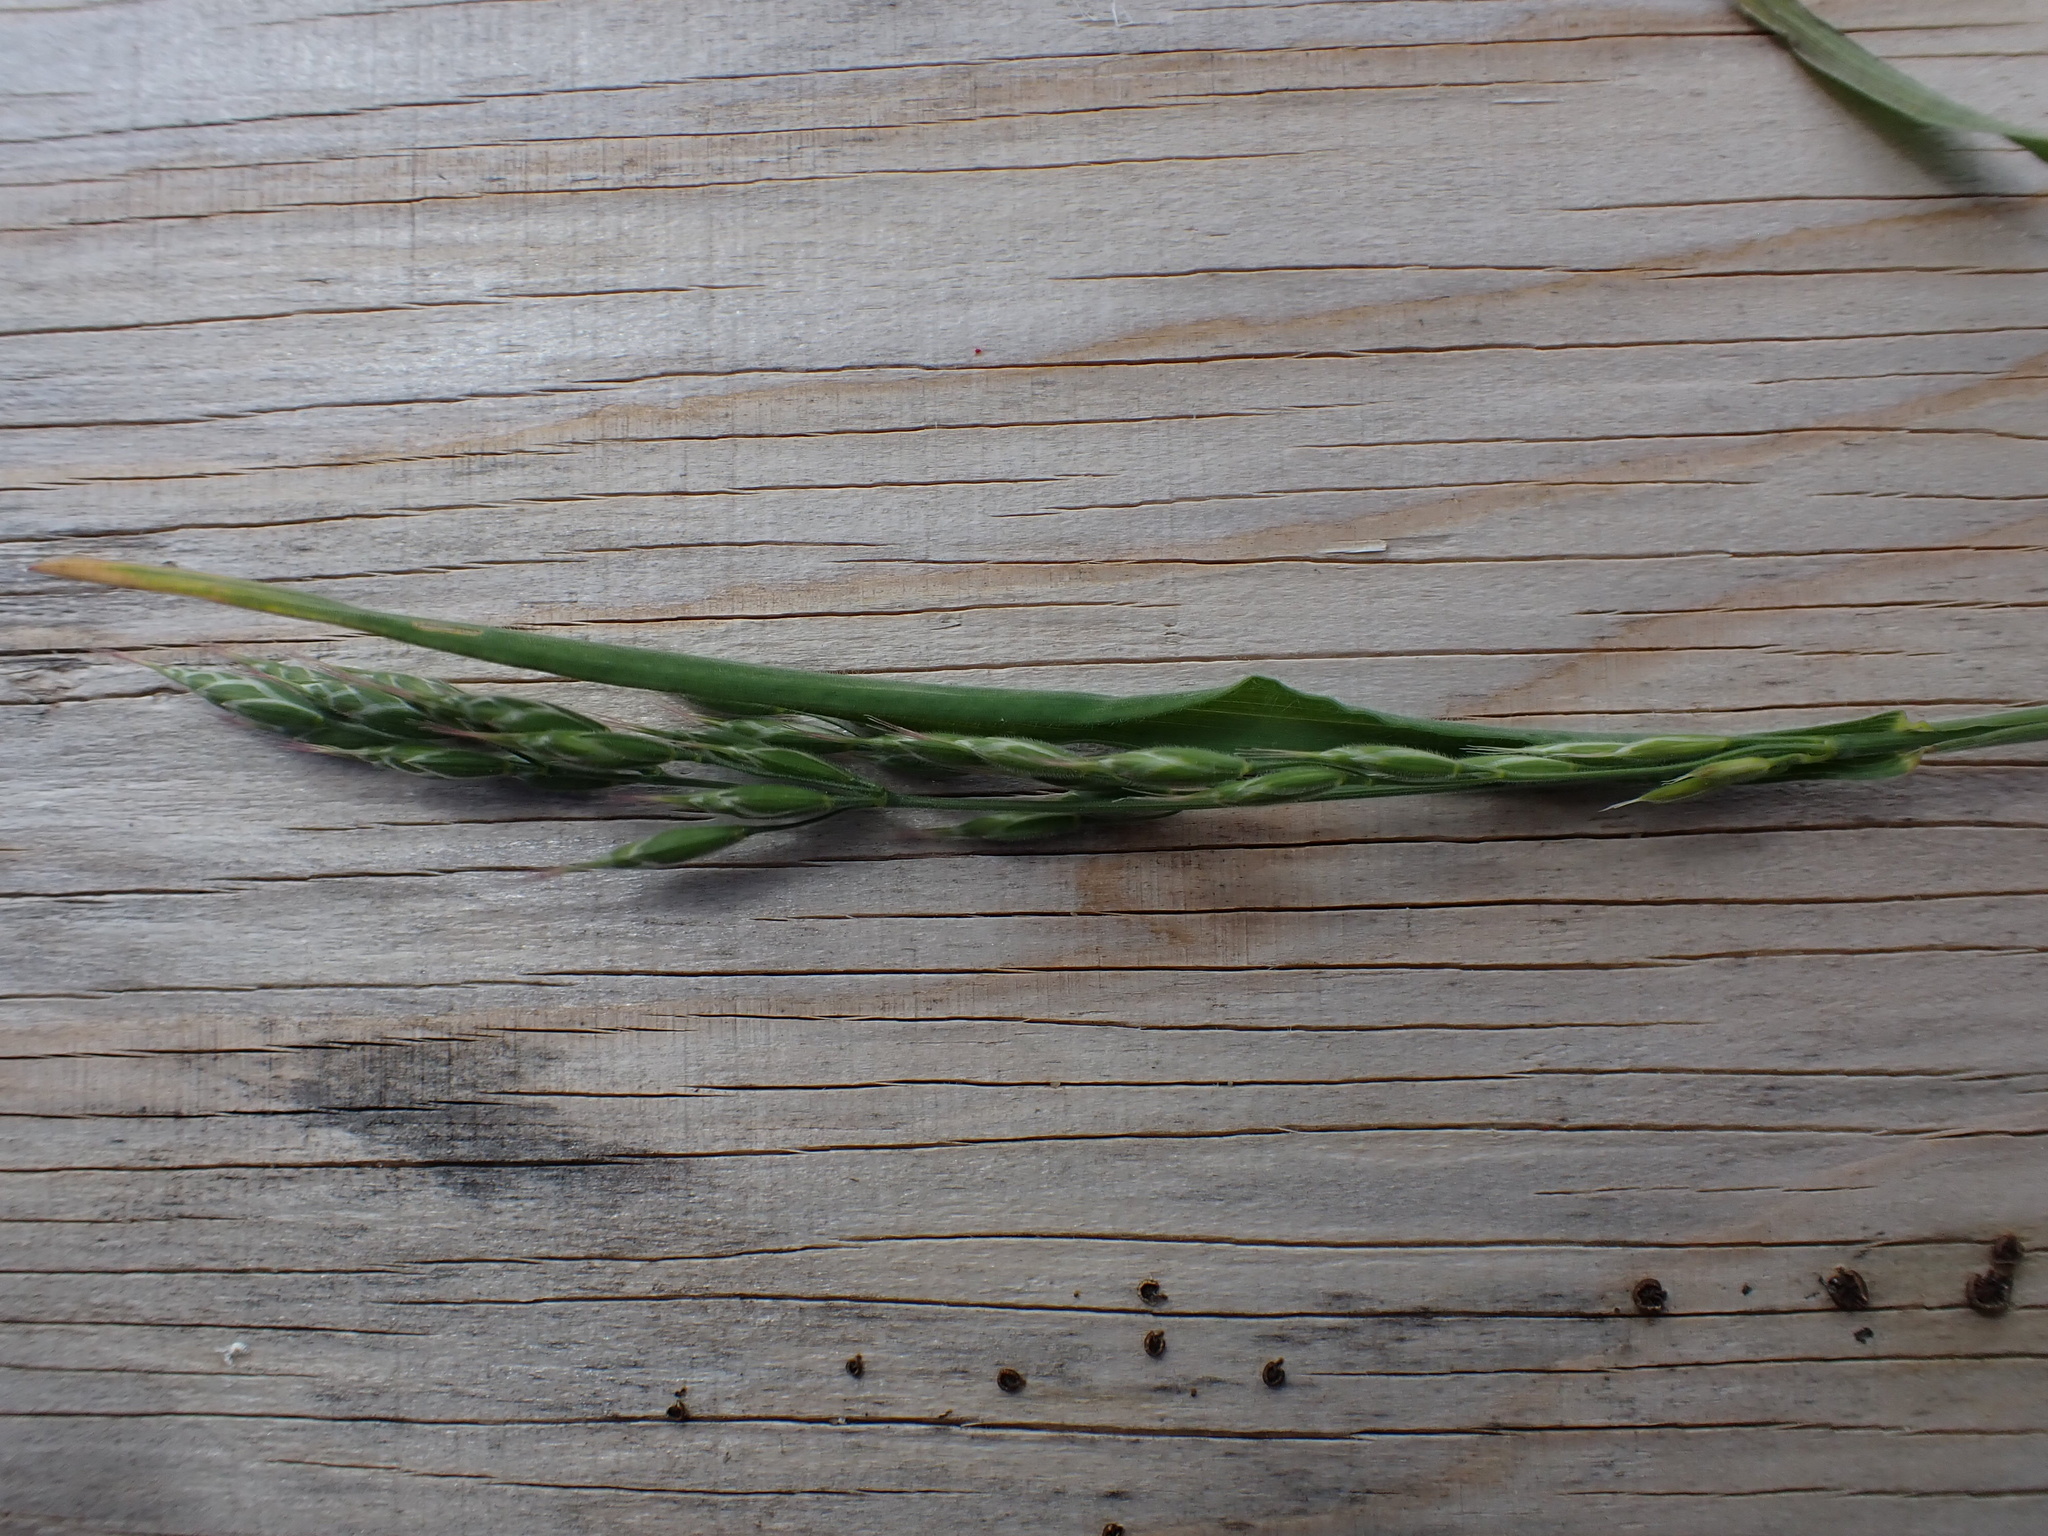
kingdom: Plantae
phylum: Tracheophyta
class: Liliopsida
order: Poales
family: Poaceae
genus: Bromus
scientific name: Bromus hordeaceus
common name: Soft brome
